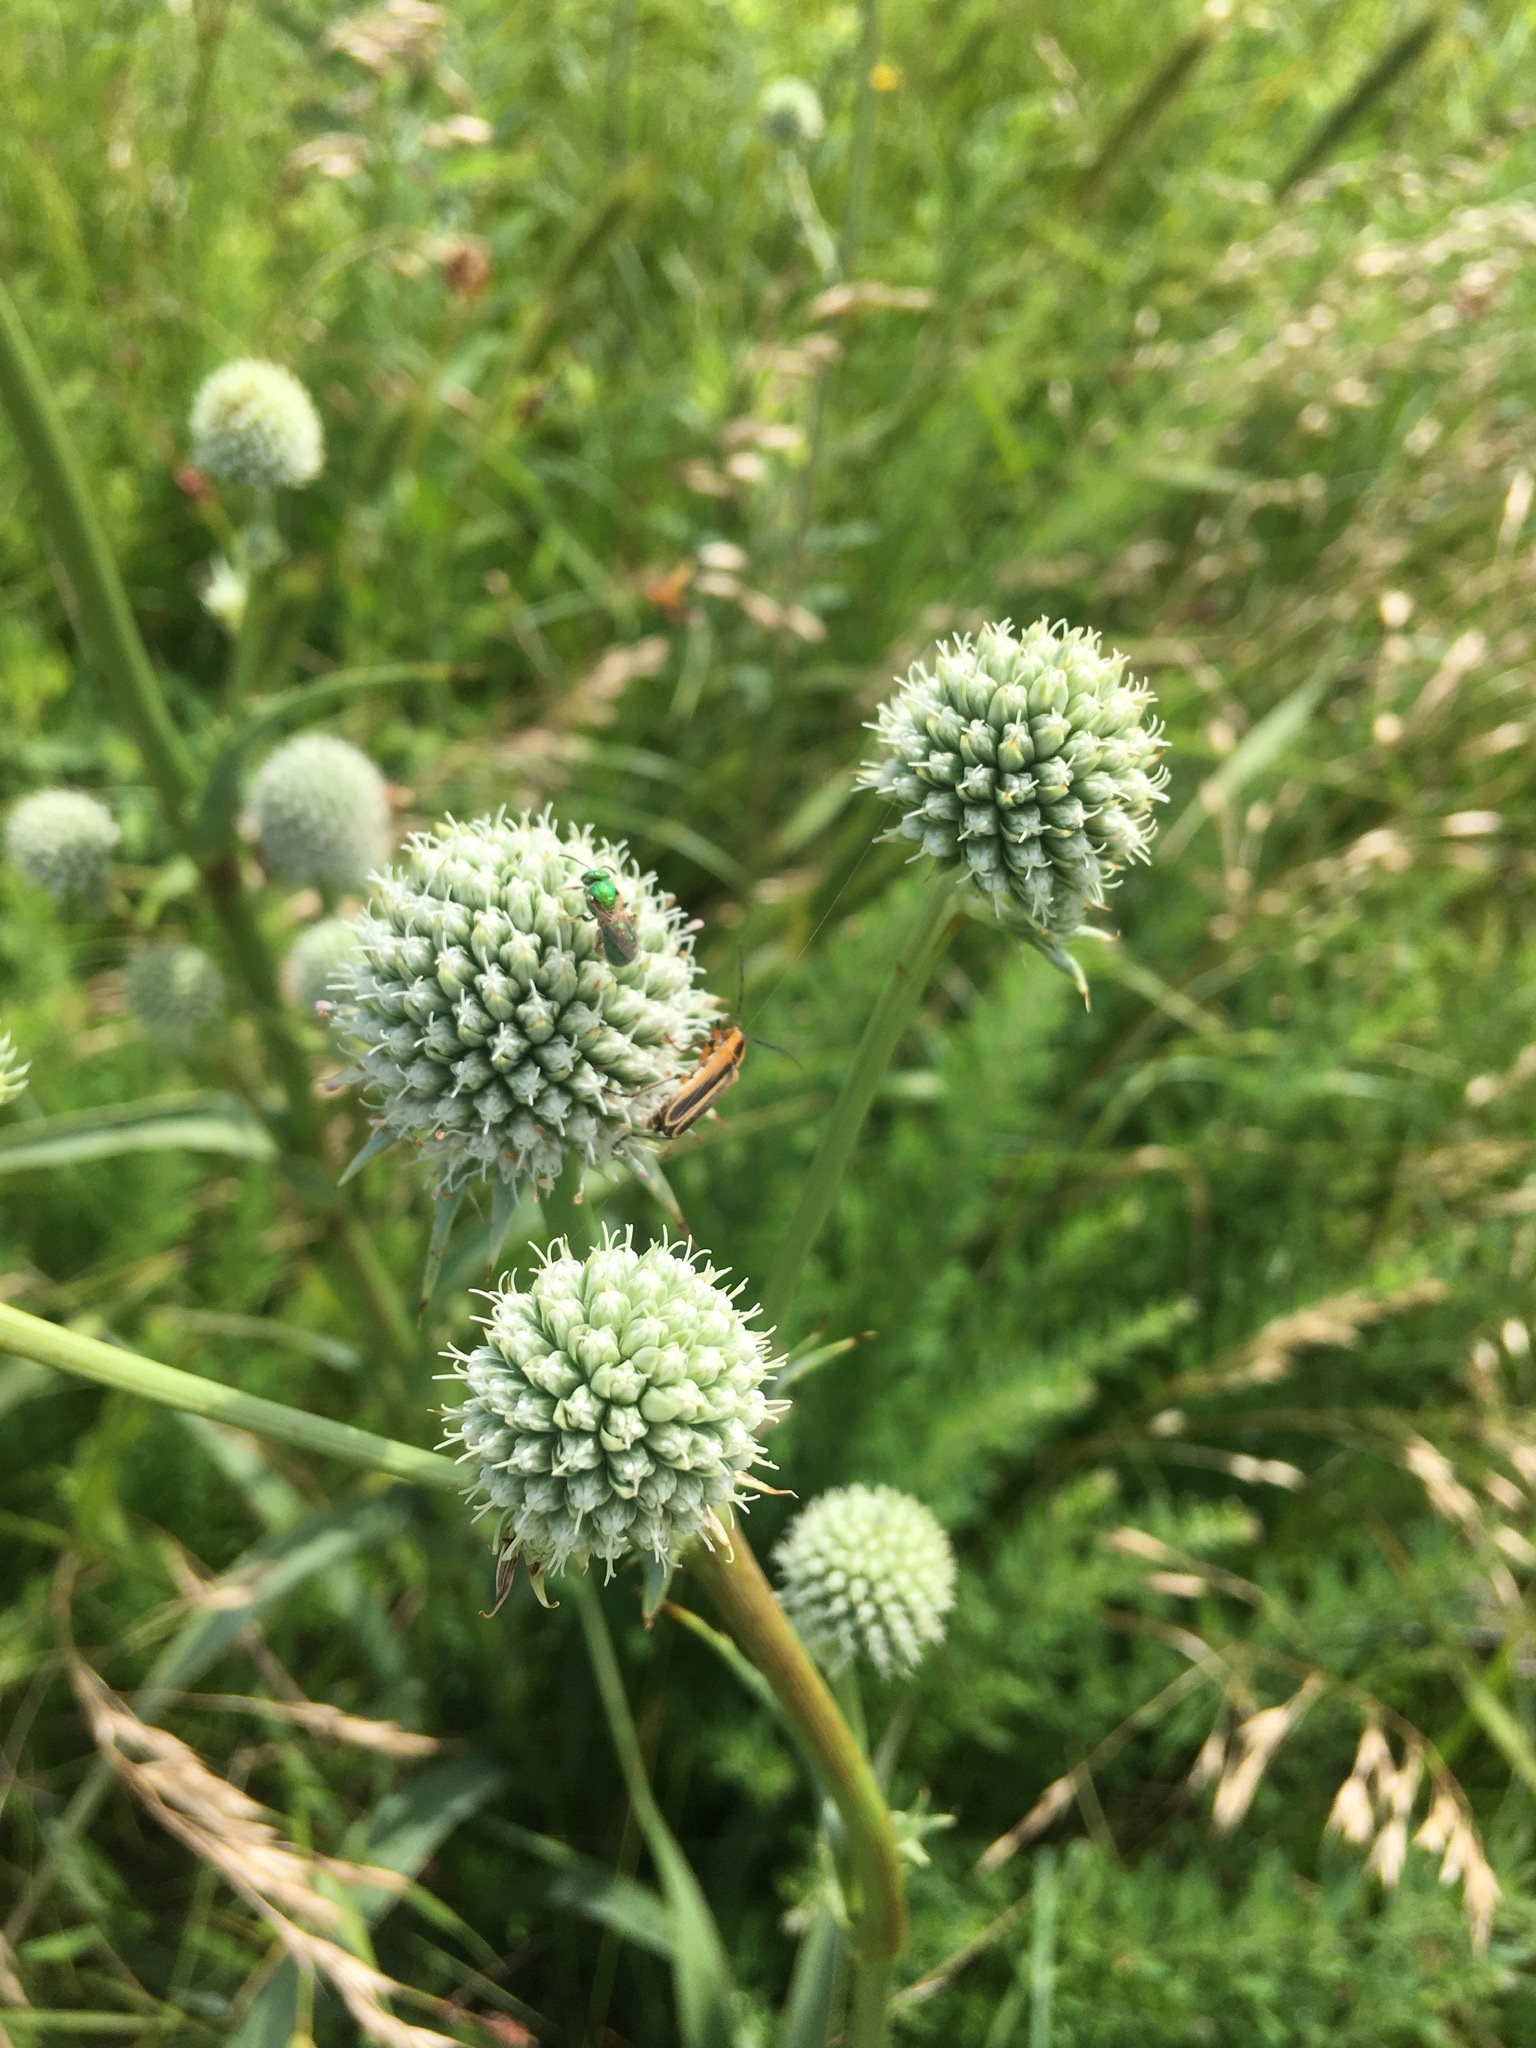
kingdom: Plantae
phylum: Tracheophyta
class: Magnoliopsida
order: Apiales
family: Apiaceae
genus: Eryngium
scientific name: Eryngium yuccifolium
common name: Button eryngo
